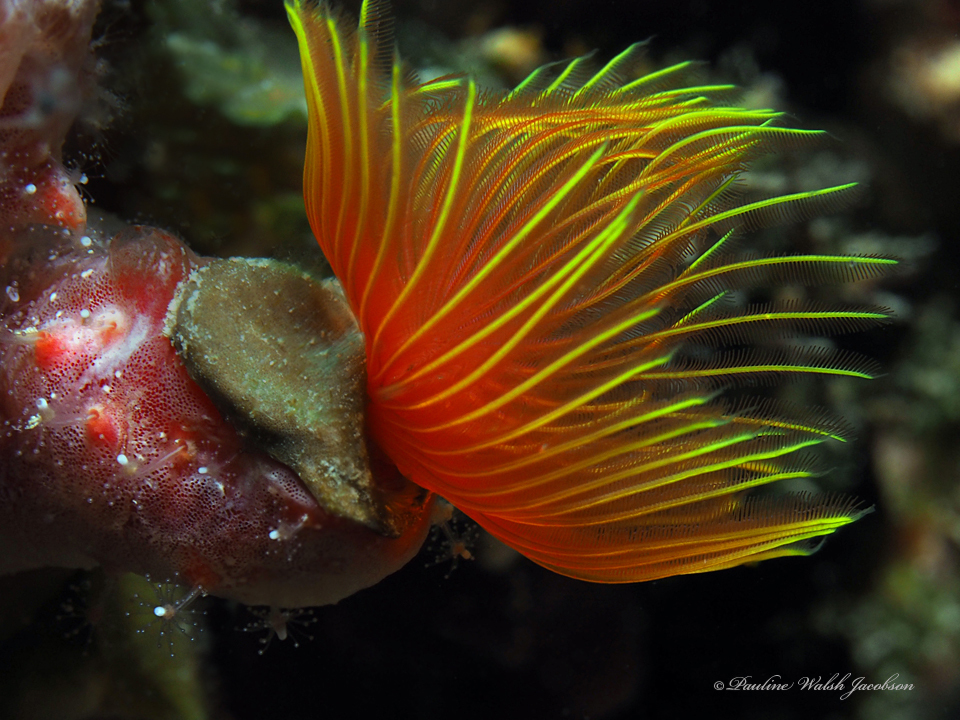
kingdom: Animalia
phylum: Annelida
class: Polychaeta
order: Sabellida
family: Serpulidae
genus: Pomatostegus
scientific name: Pomatostegus stellatus
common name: Star tubeworm
